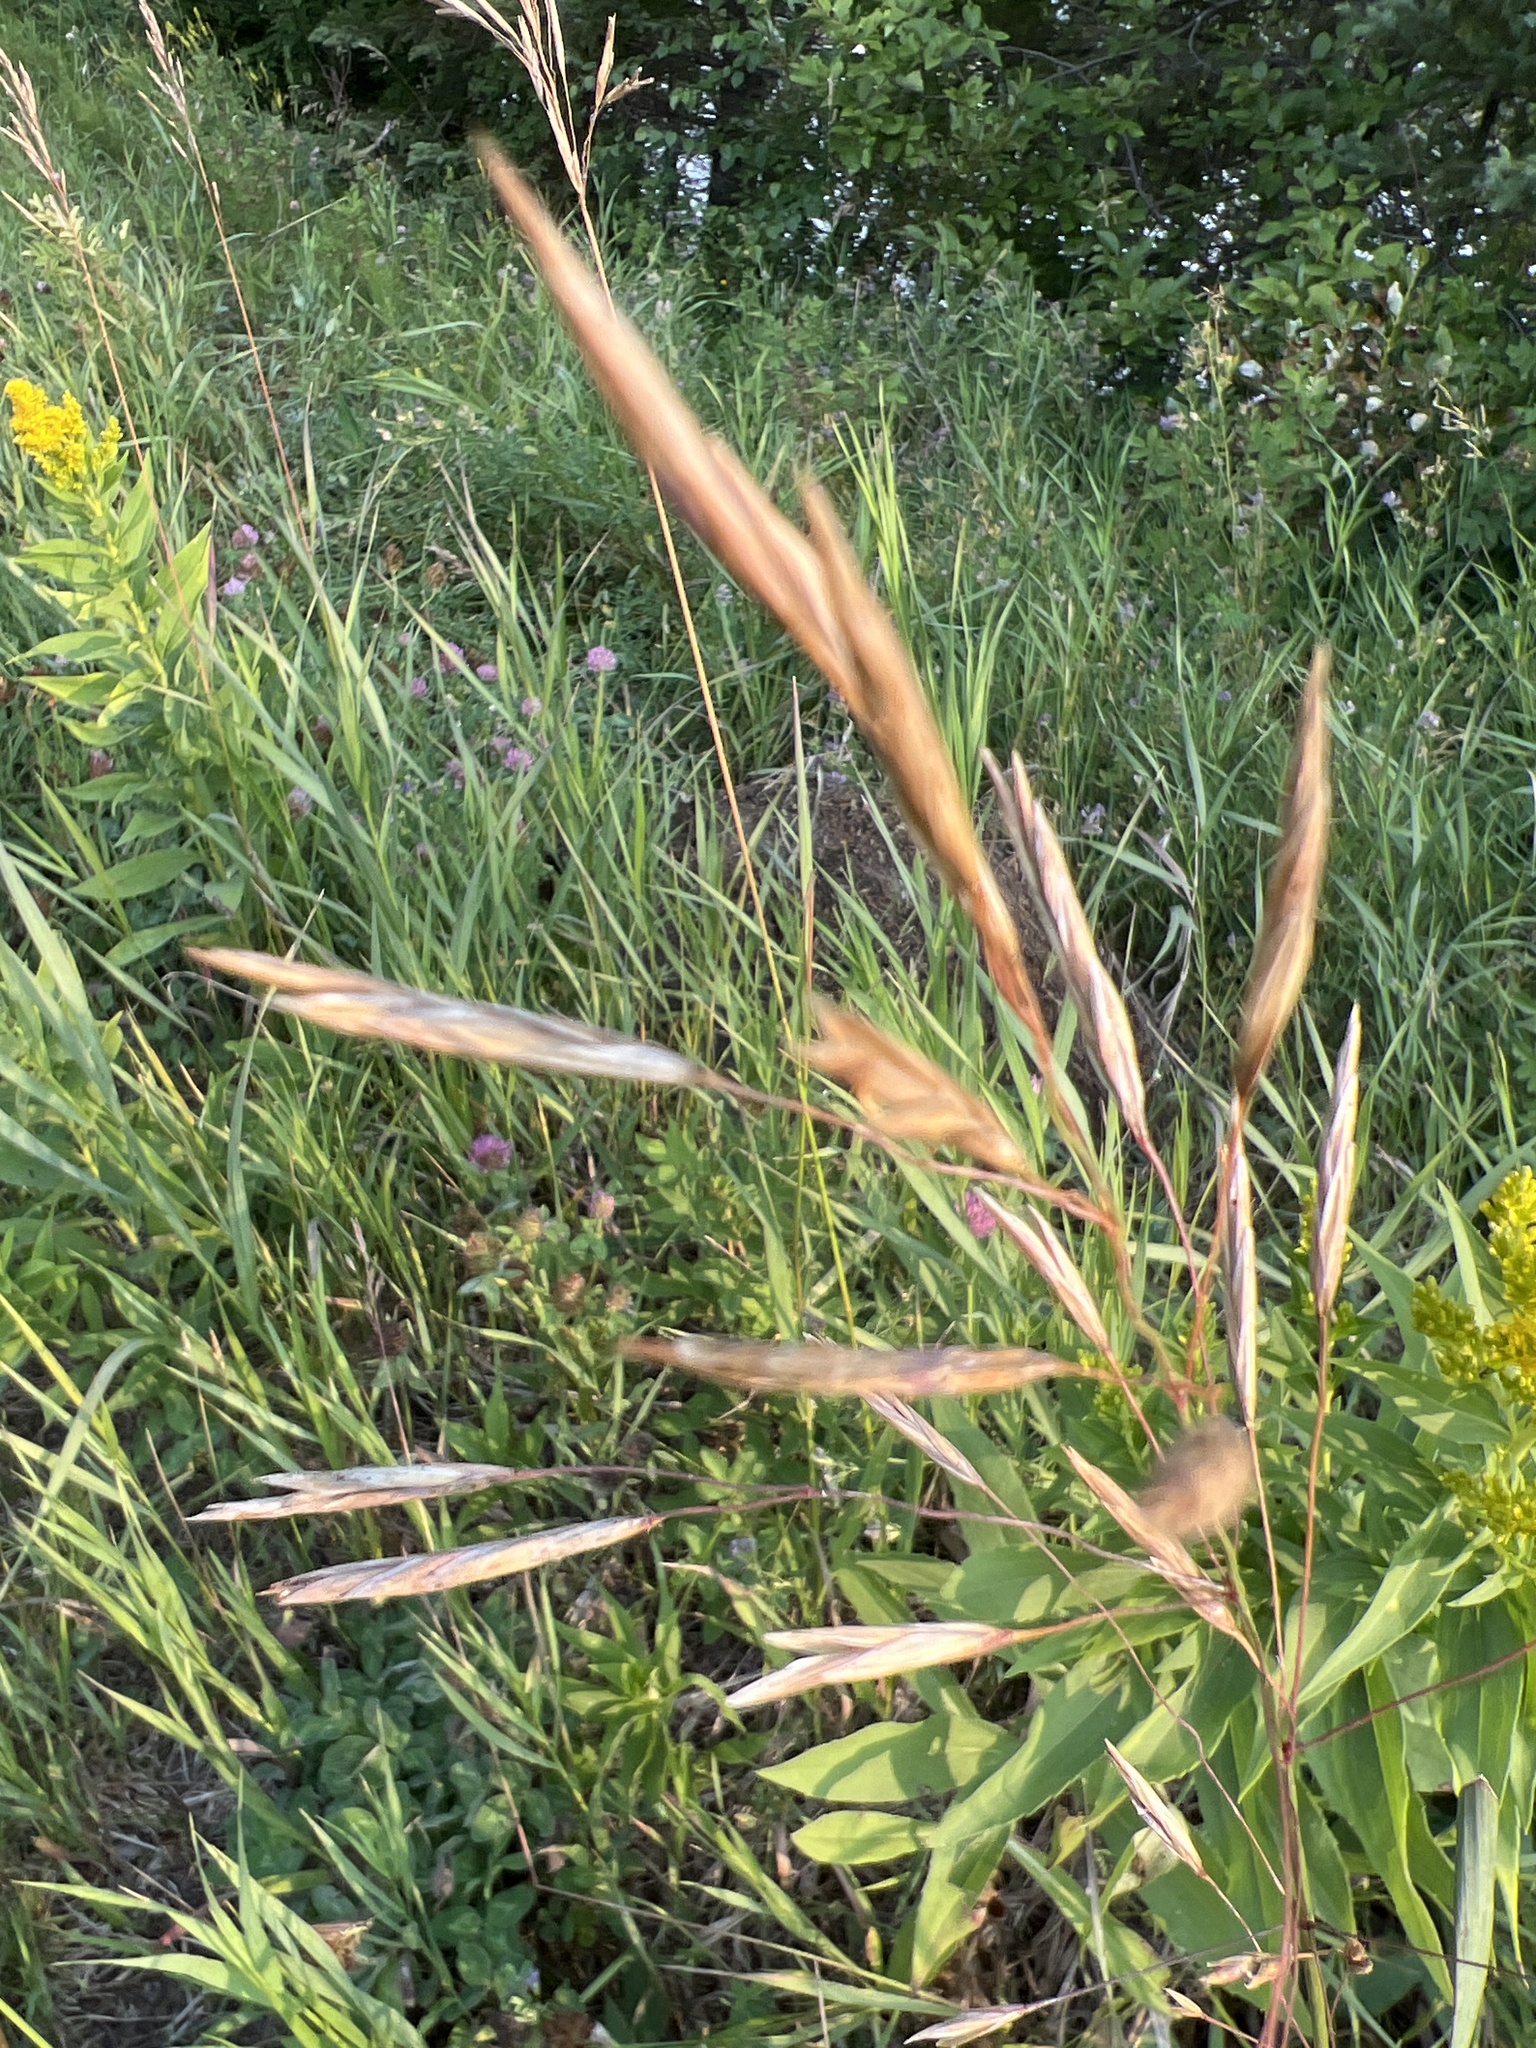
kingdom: Plantae
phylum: Tracheophyta
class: Liliopsida
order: Poales
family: Poaceae
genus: Bromus
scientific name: Bromus inermis
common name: Smooth brome
